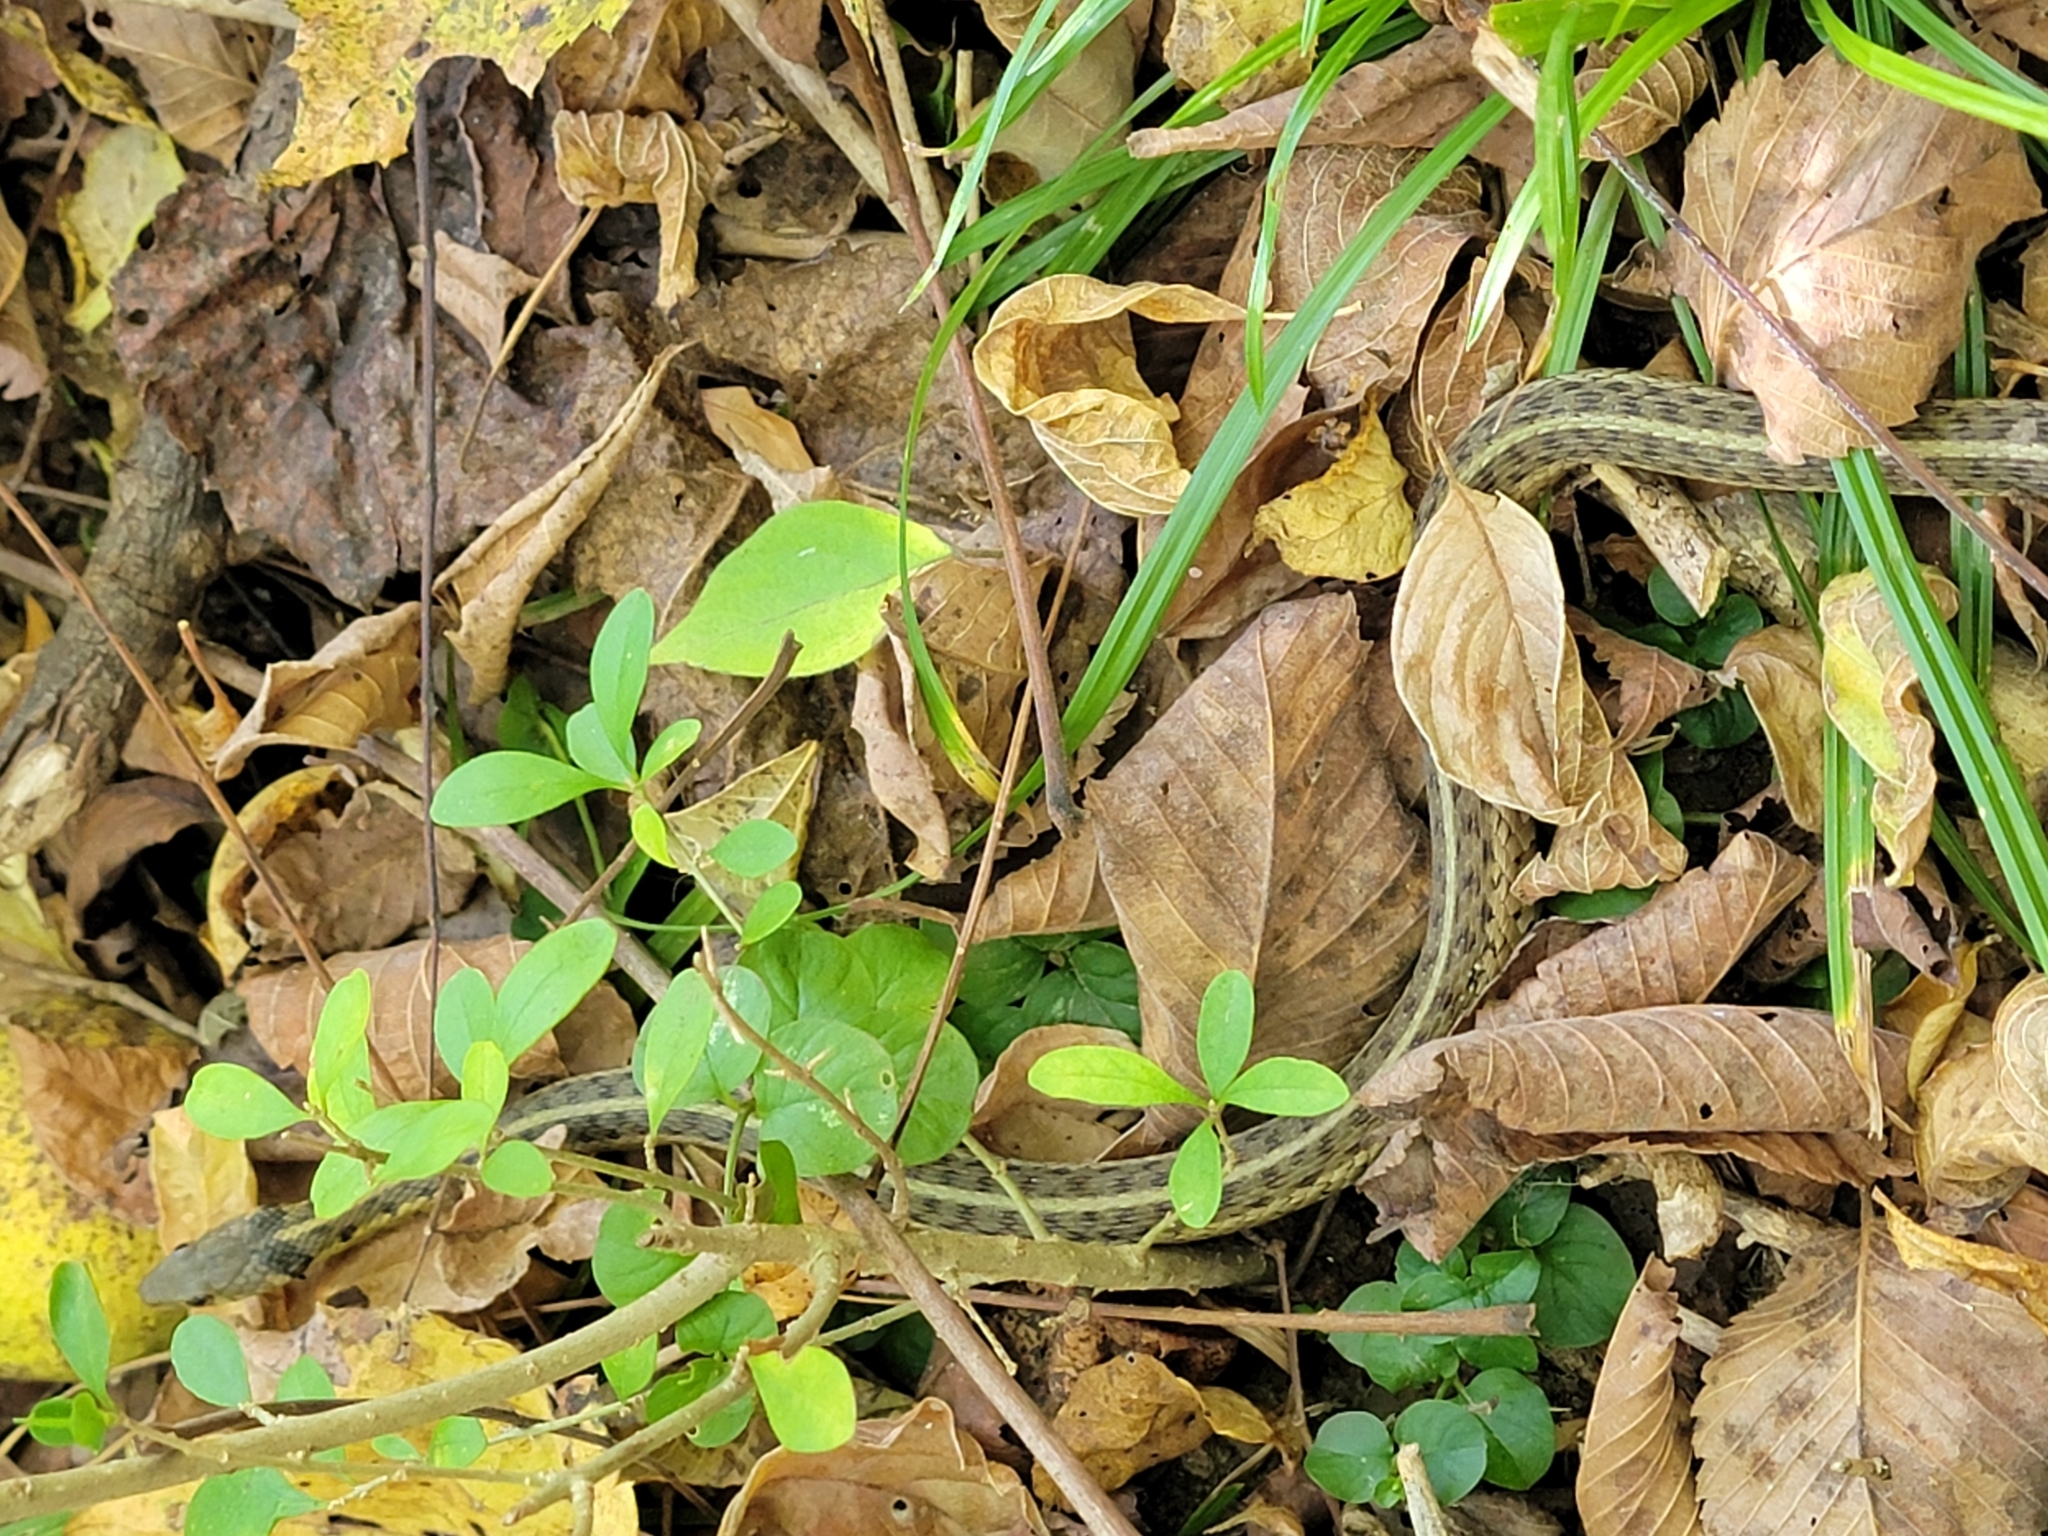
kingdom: Animalia
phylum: Chordata
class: Squamata
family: Colubridae
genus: Thamnophis
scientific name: Thamnophis sirtalis
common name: Common garter snake
